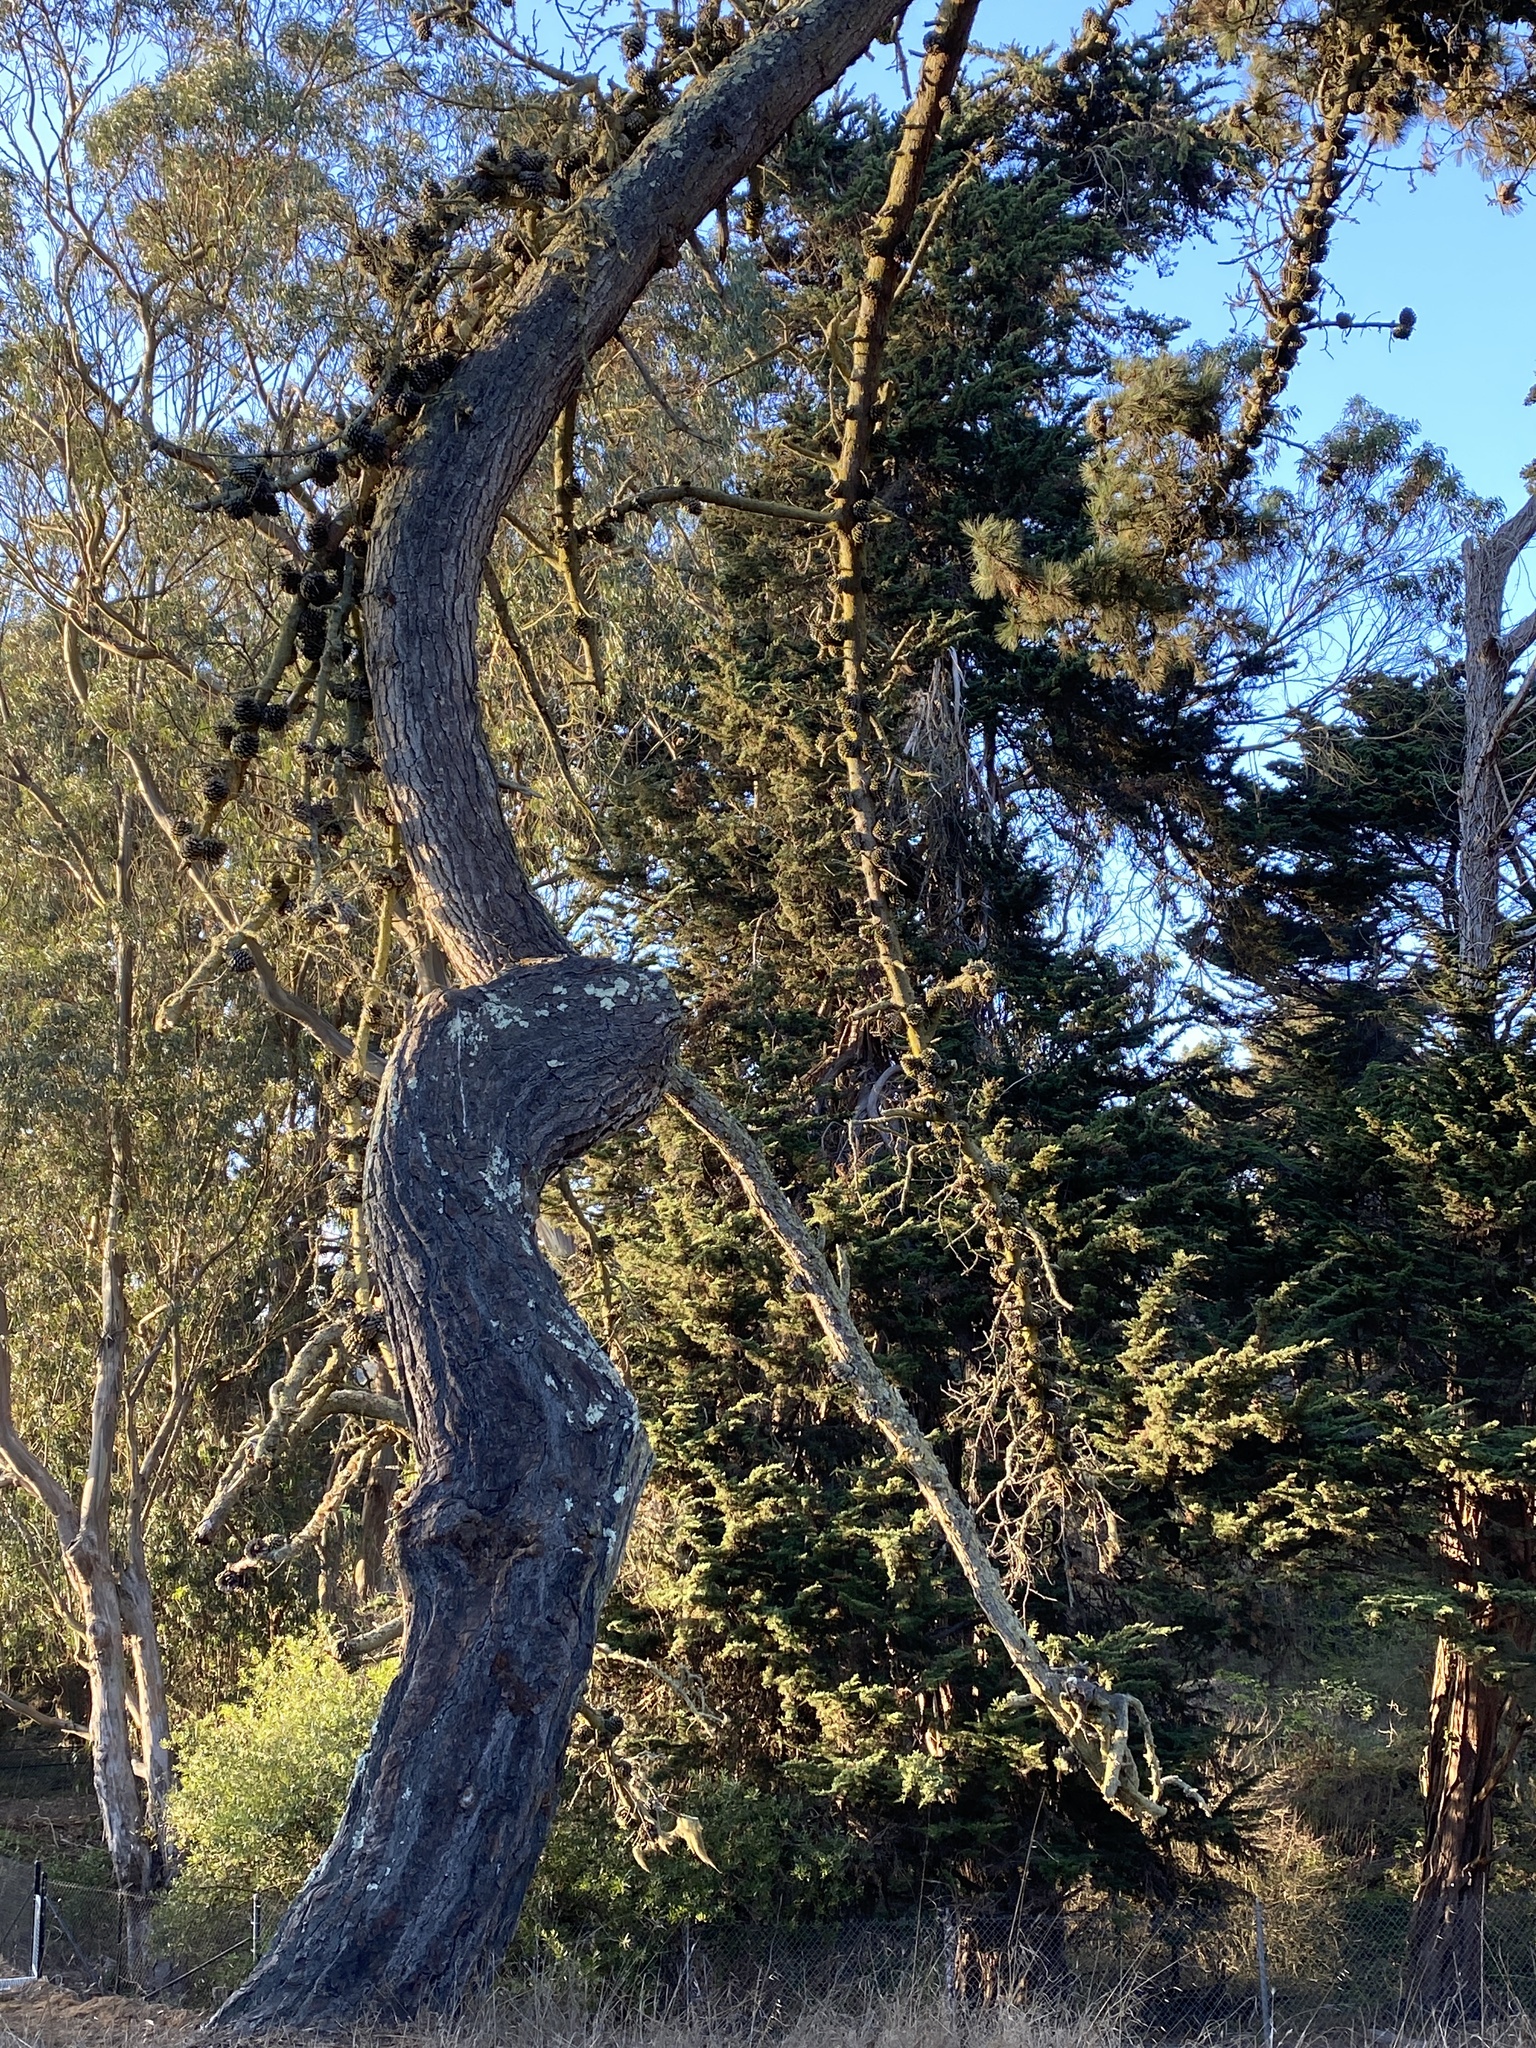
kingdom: Plantae
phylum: Tracheophyta
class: Pinopsida
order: Pinales
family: Pinaceae
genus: Pinus
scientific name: Pinus radiata
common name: Monterey pine
